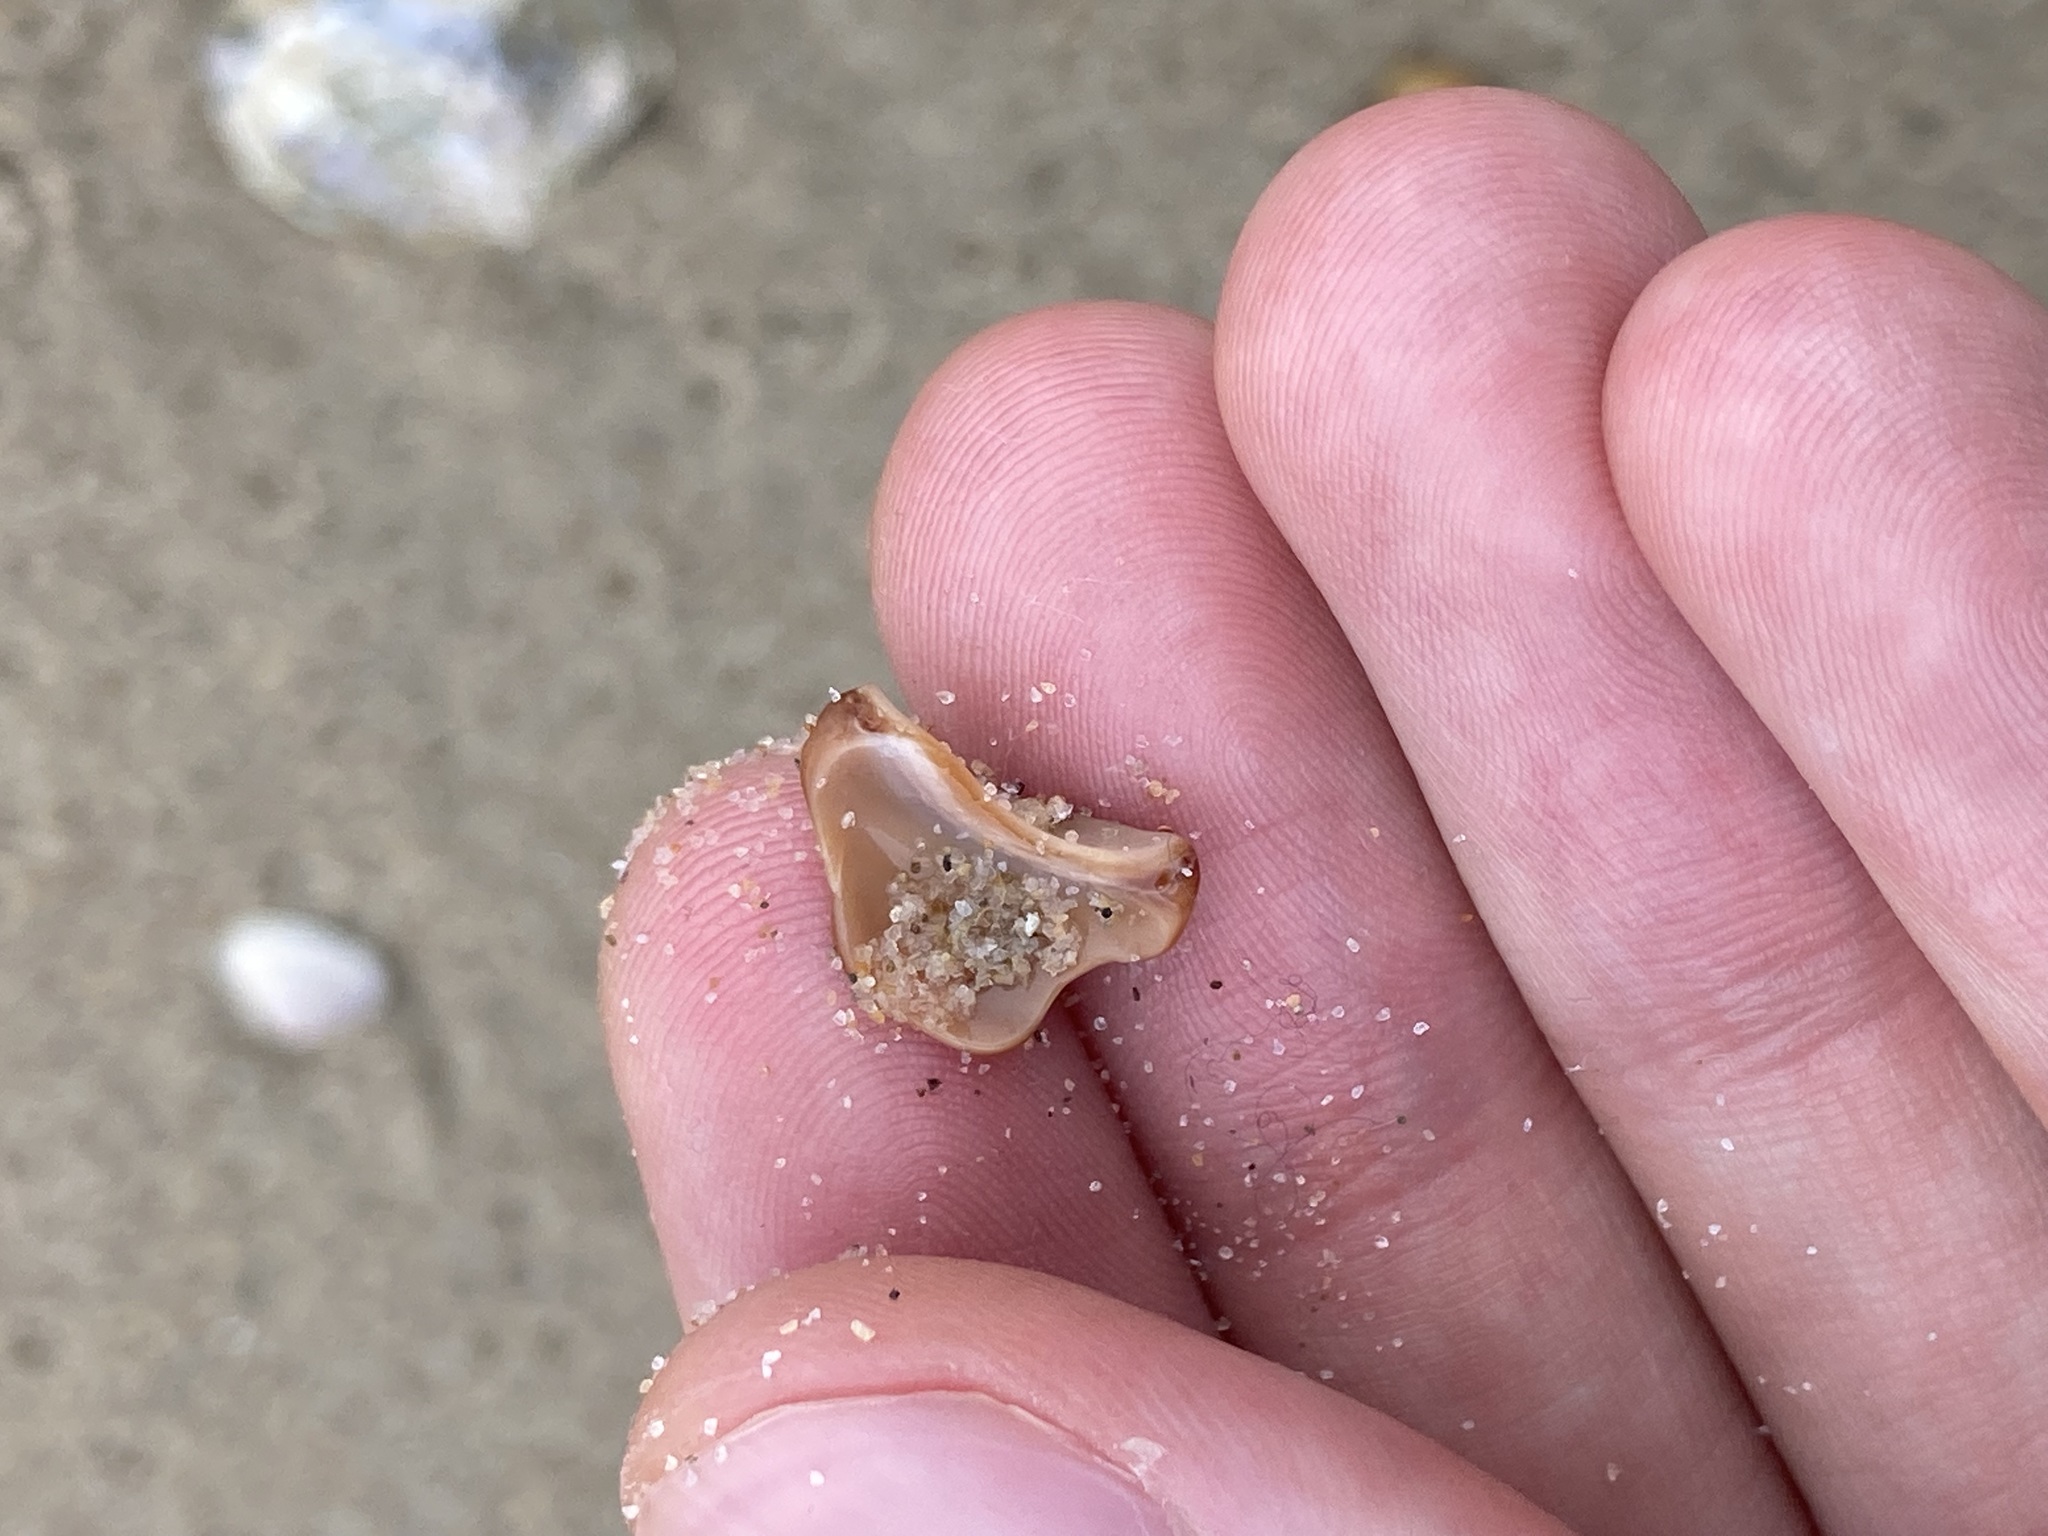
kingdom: Animalia
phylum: Mollusca
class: Gastropoda
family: Batillariidae
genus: Pyrazus
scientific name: Pyrazus ebeninus
